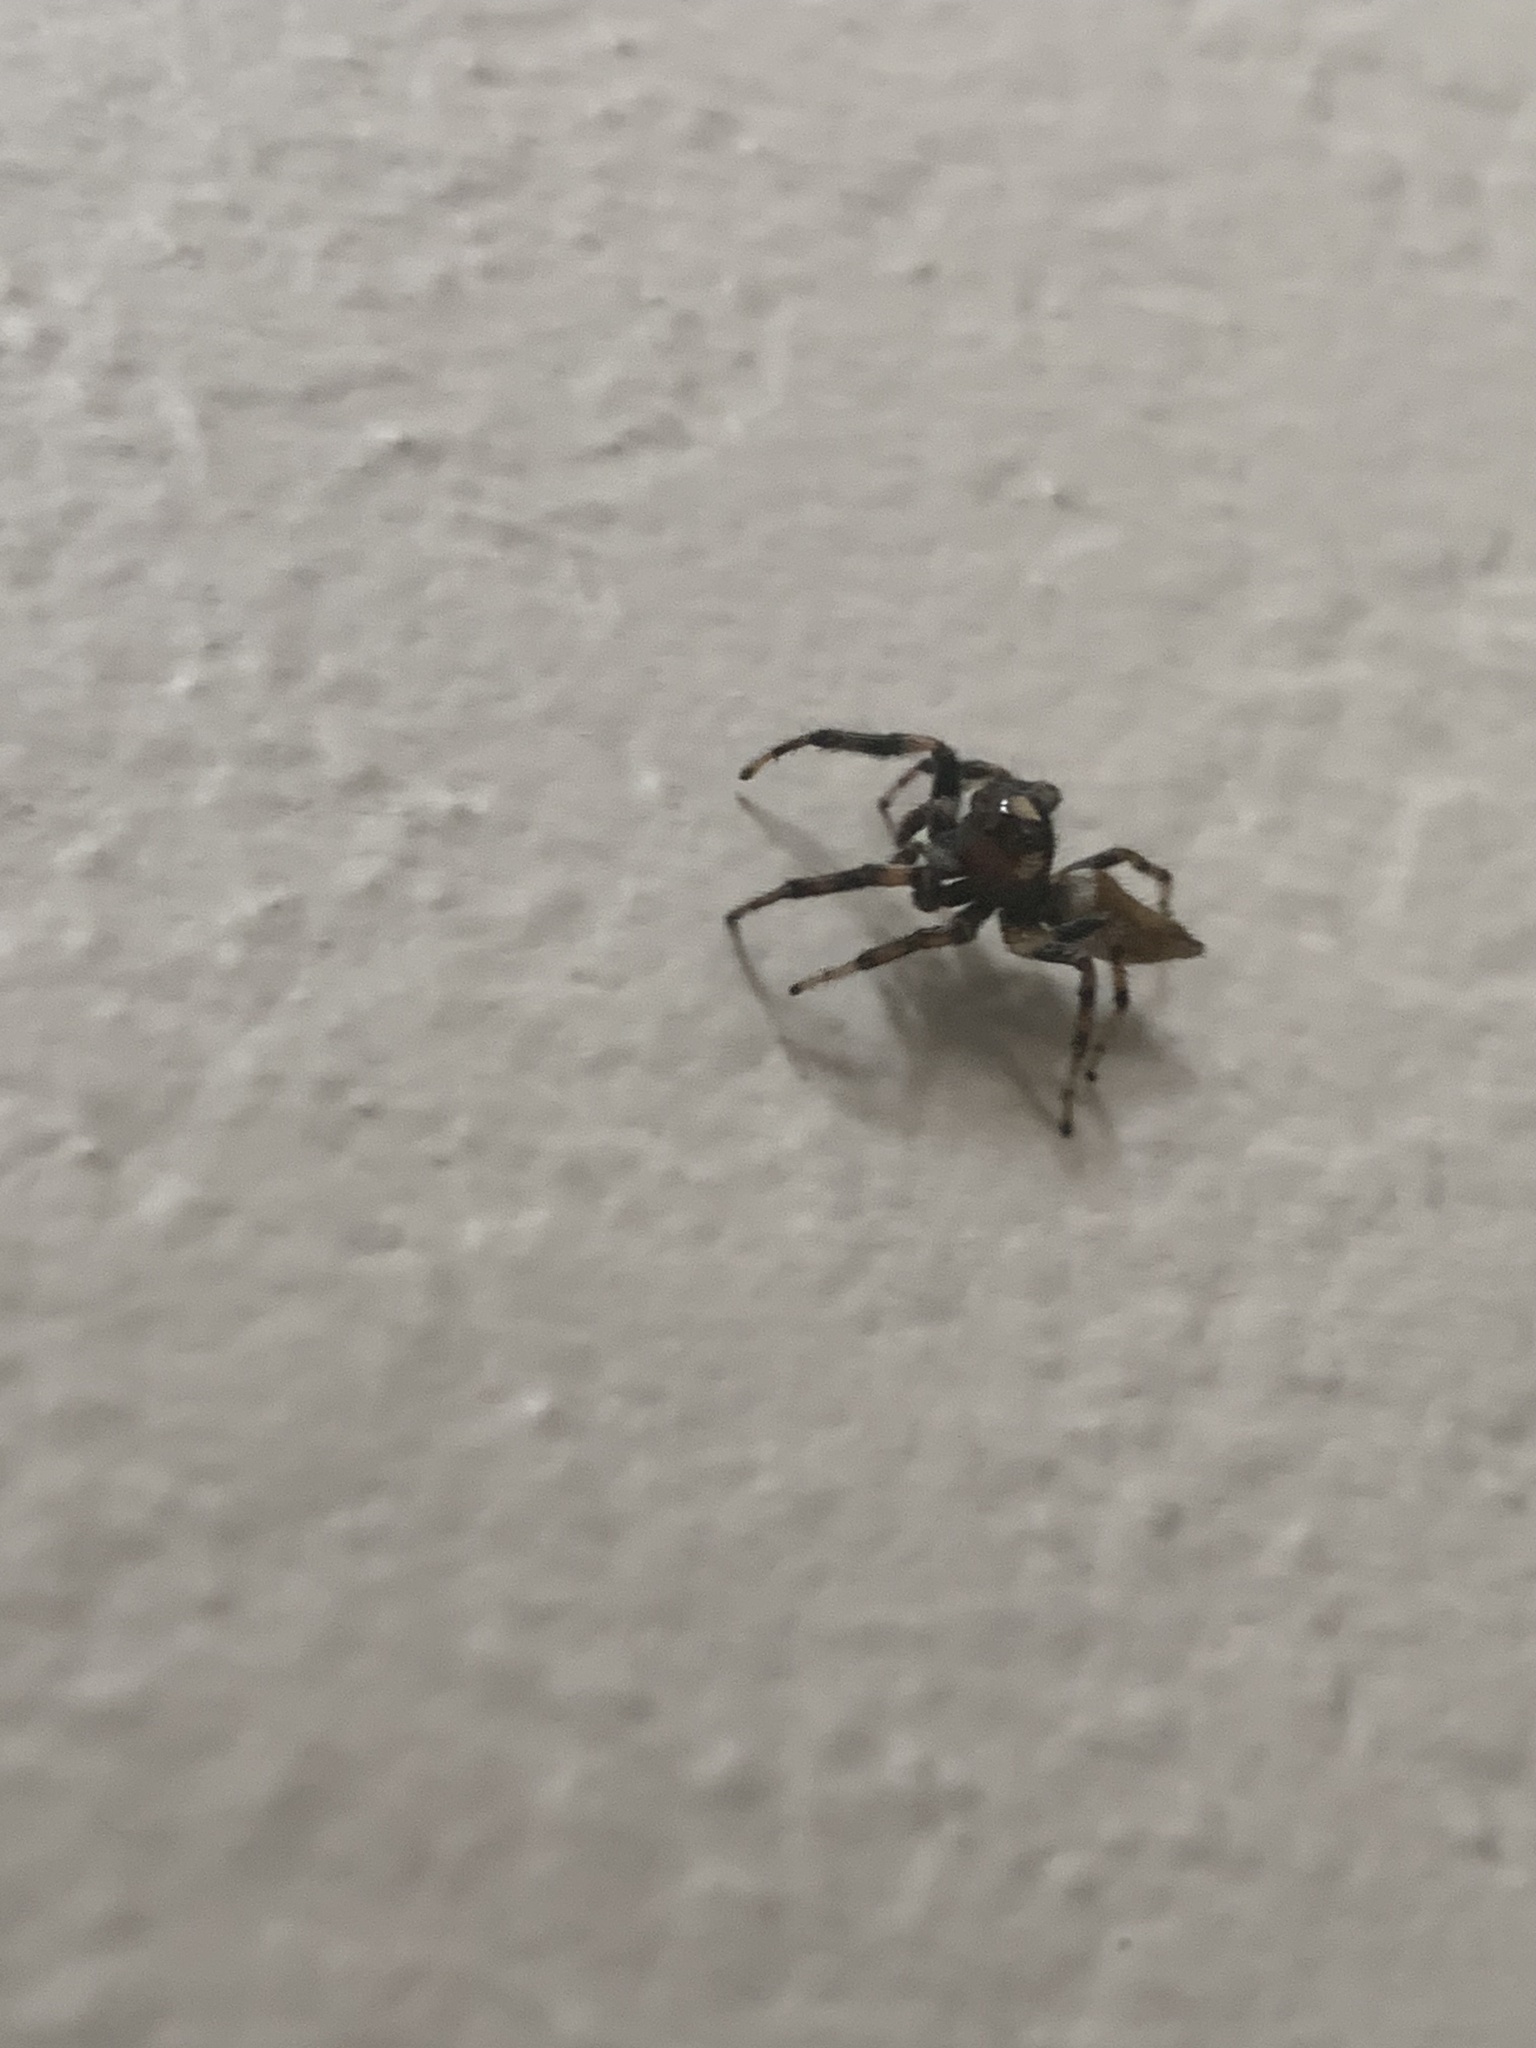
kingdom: Animalia
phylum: Arthropoda
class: Arachnida
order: Araneae
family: Salticidae
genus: Colonus
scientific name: Colonus hesperus
